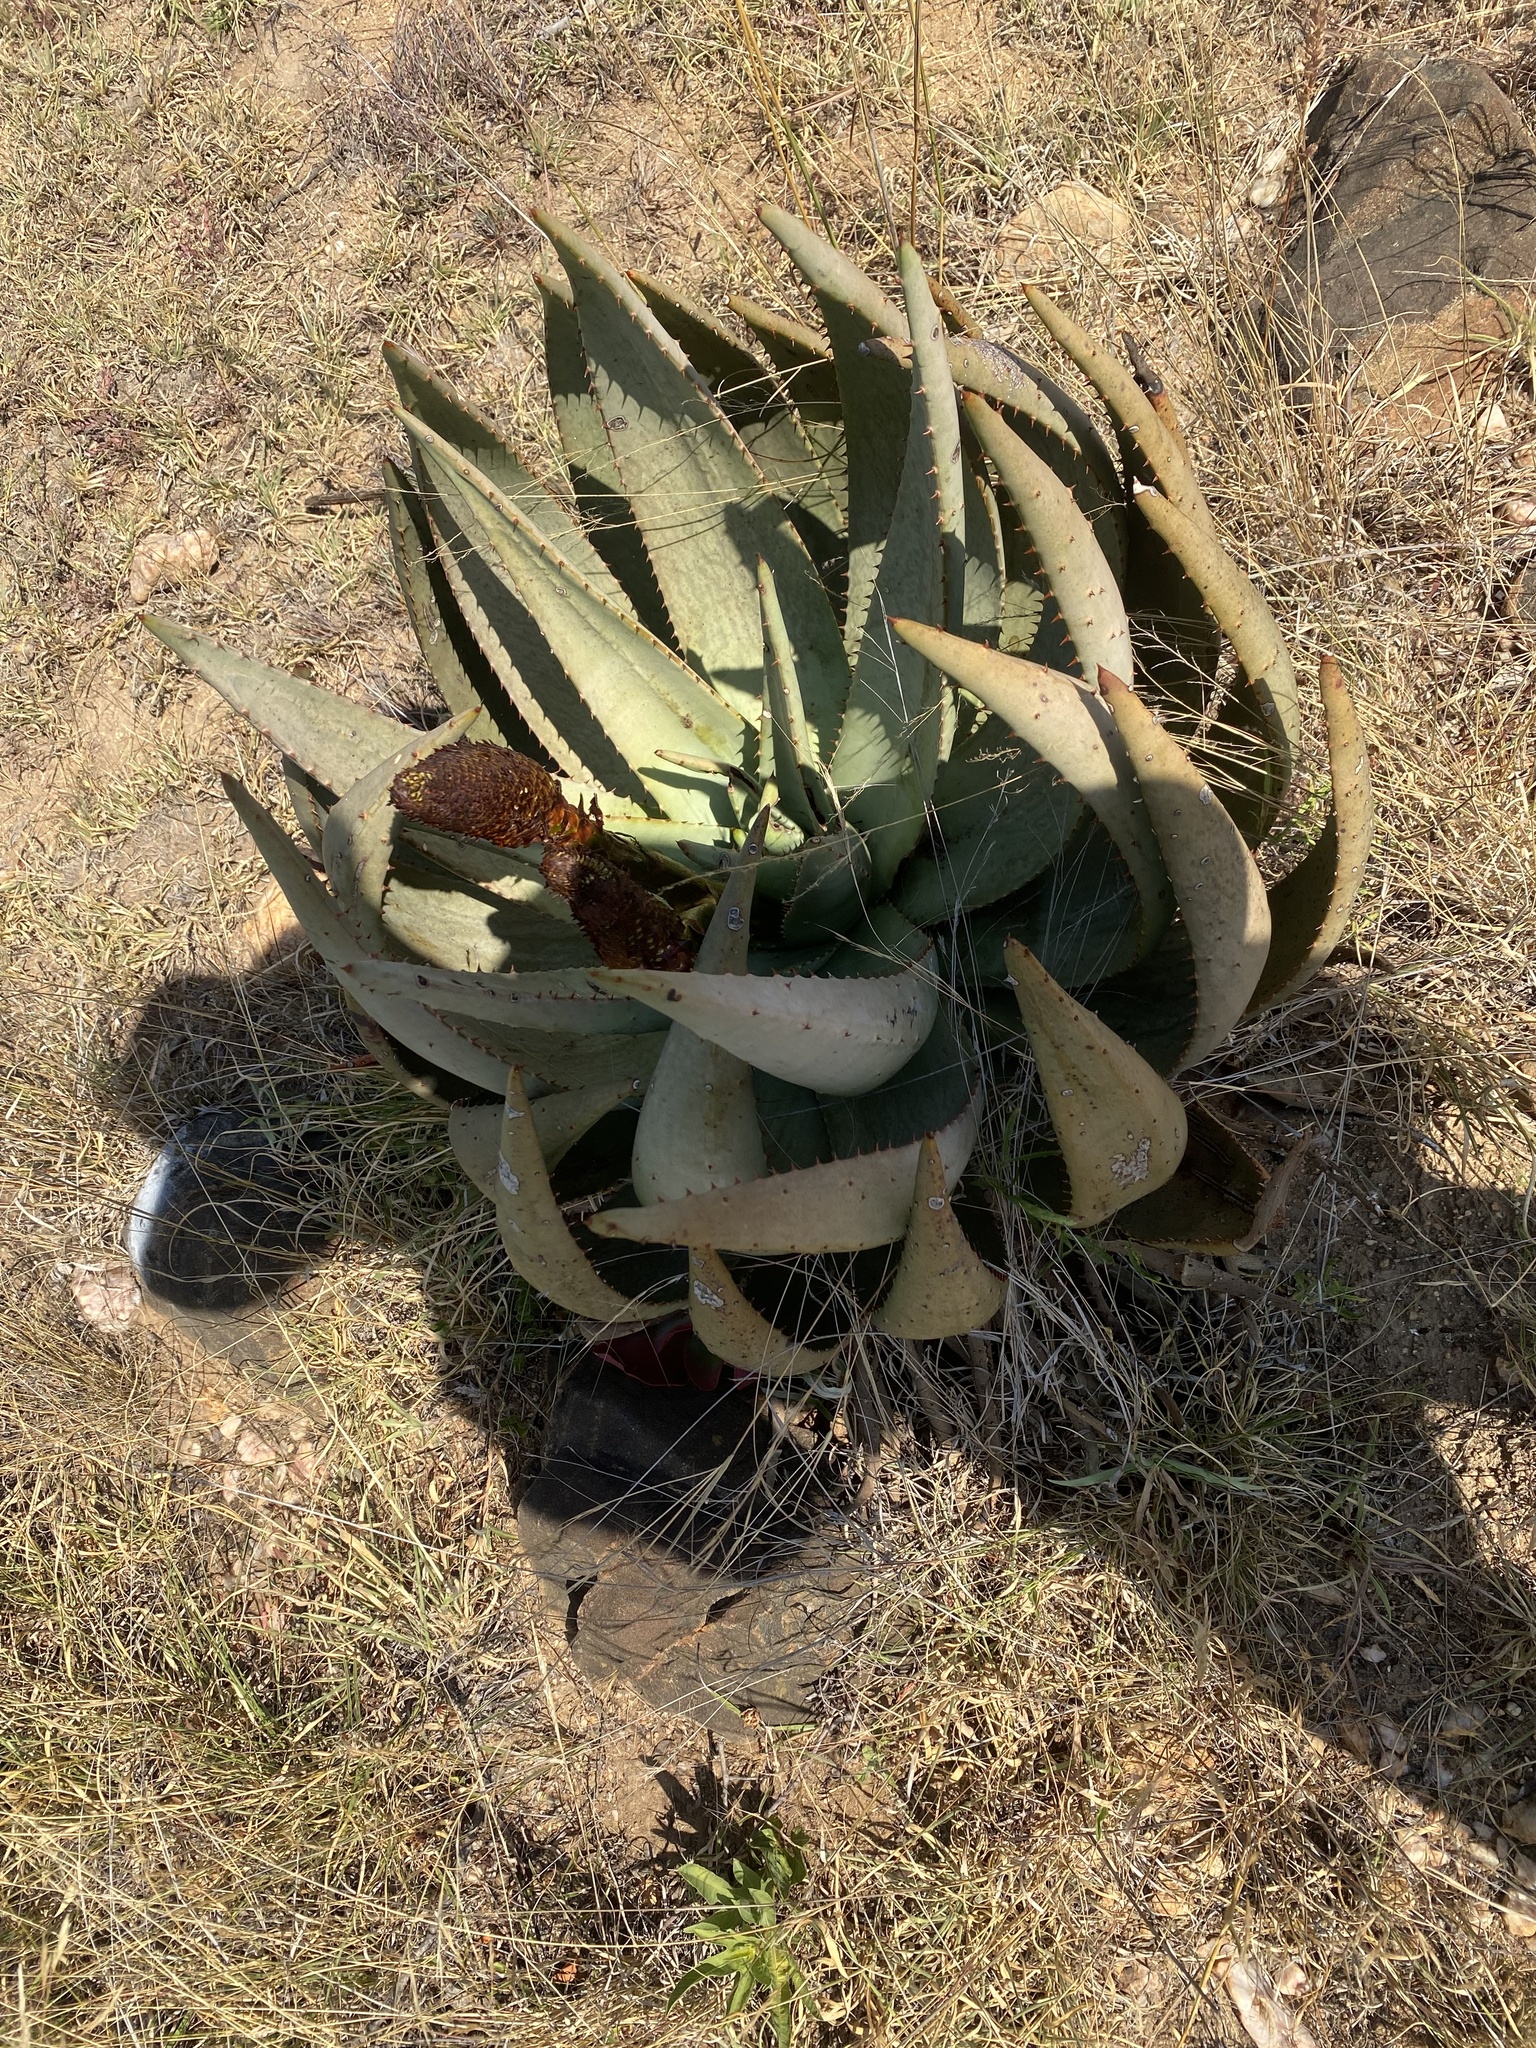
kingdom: Plantae
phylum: Tracheophyta
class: Liliopsida
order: Asparagales
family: Asphodelaceae
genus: Aloe
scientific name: Aloe aculeata
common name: Red hot poker aloe
